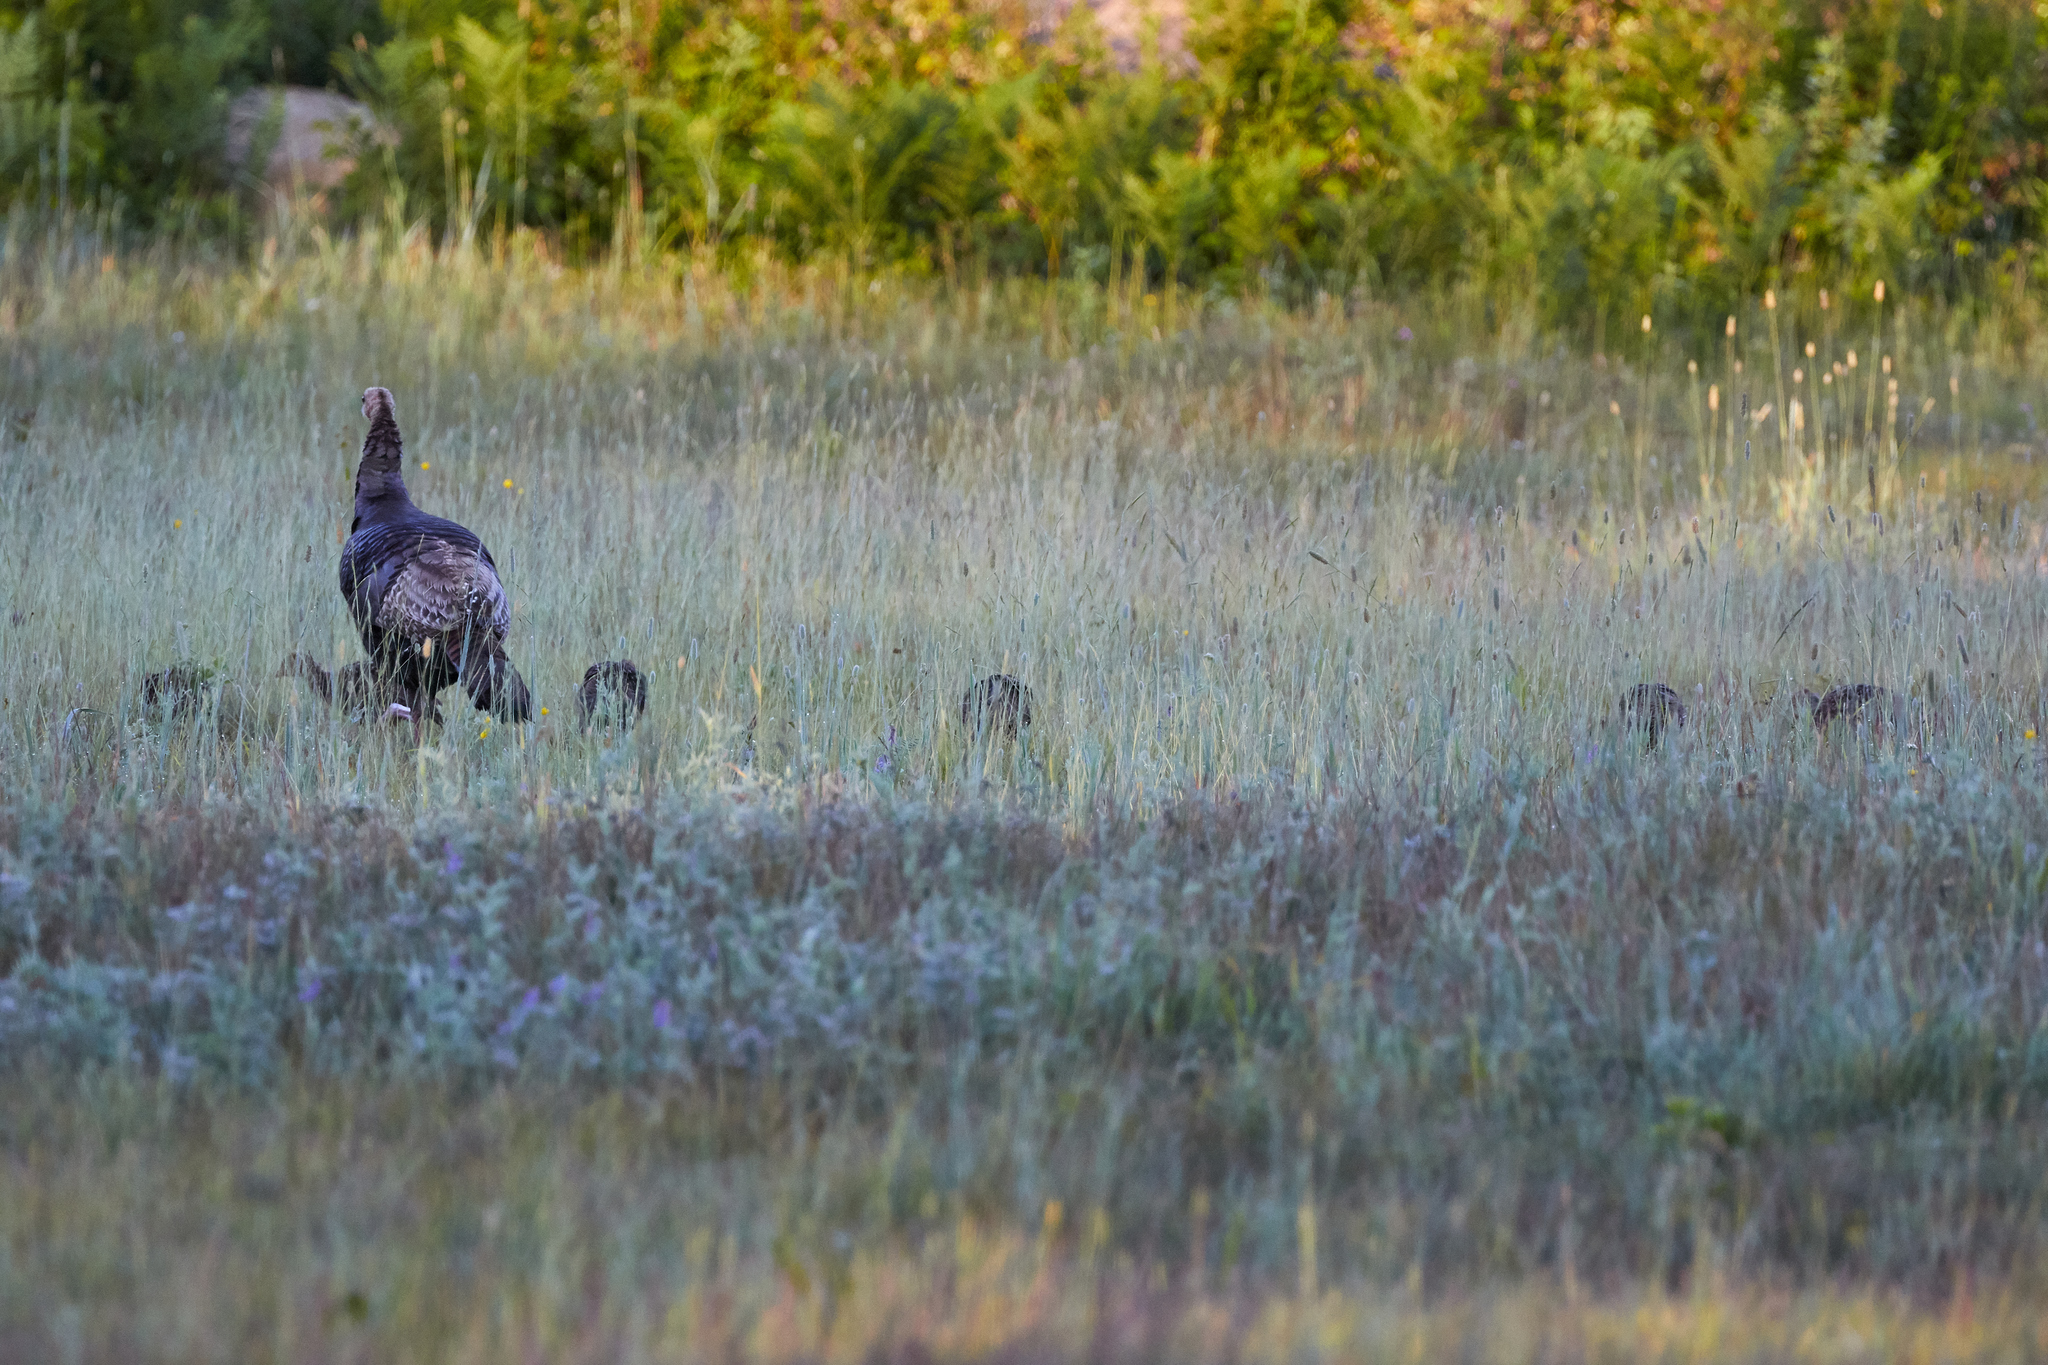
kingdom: Animalia
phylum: Chordata
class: Aves
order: Galliformes
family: Phasianidae
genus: Meleagris
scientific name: Meleagris gallopavo
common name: Wild turkey
